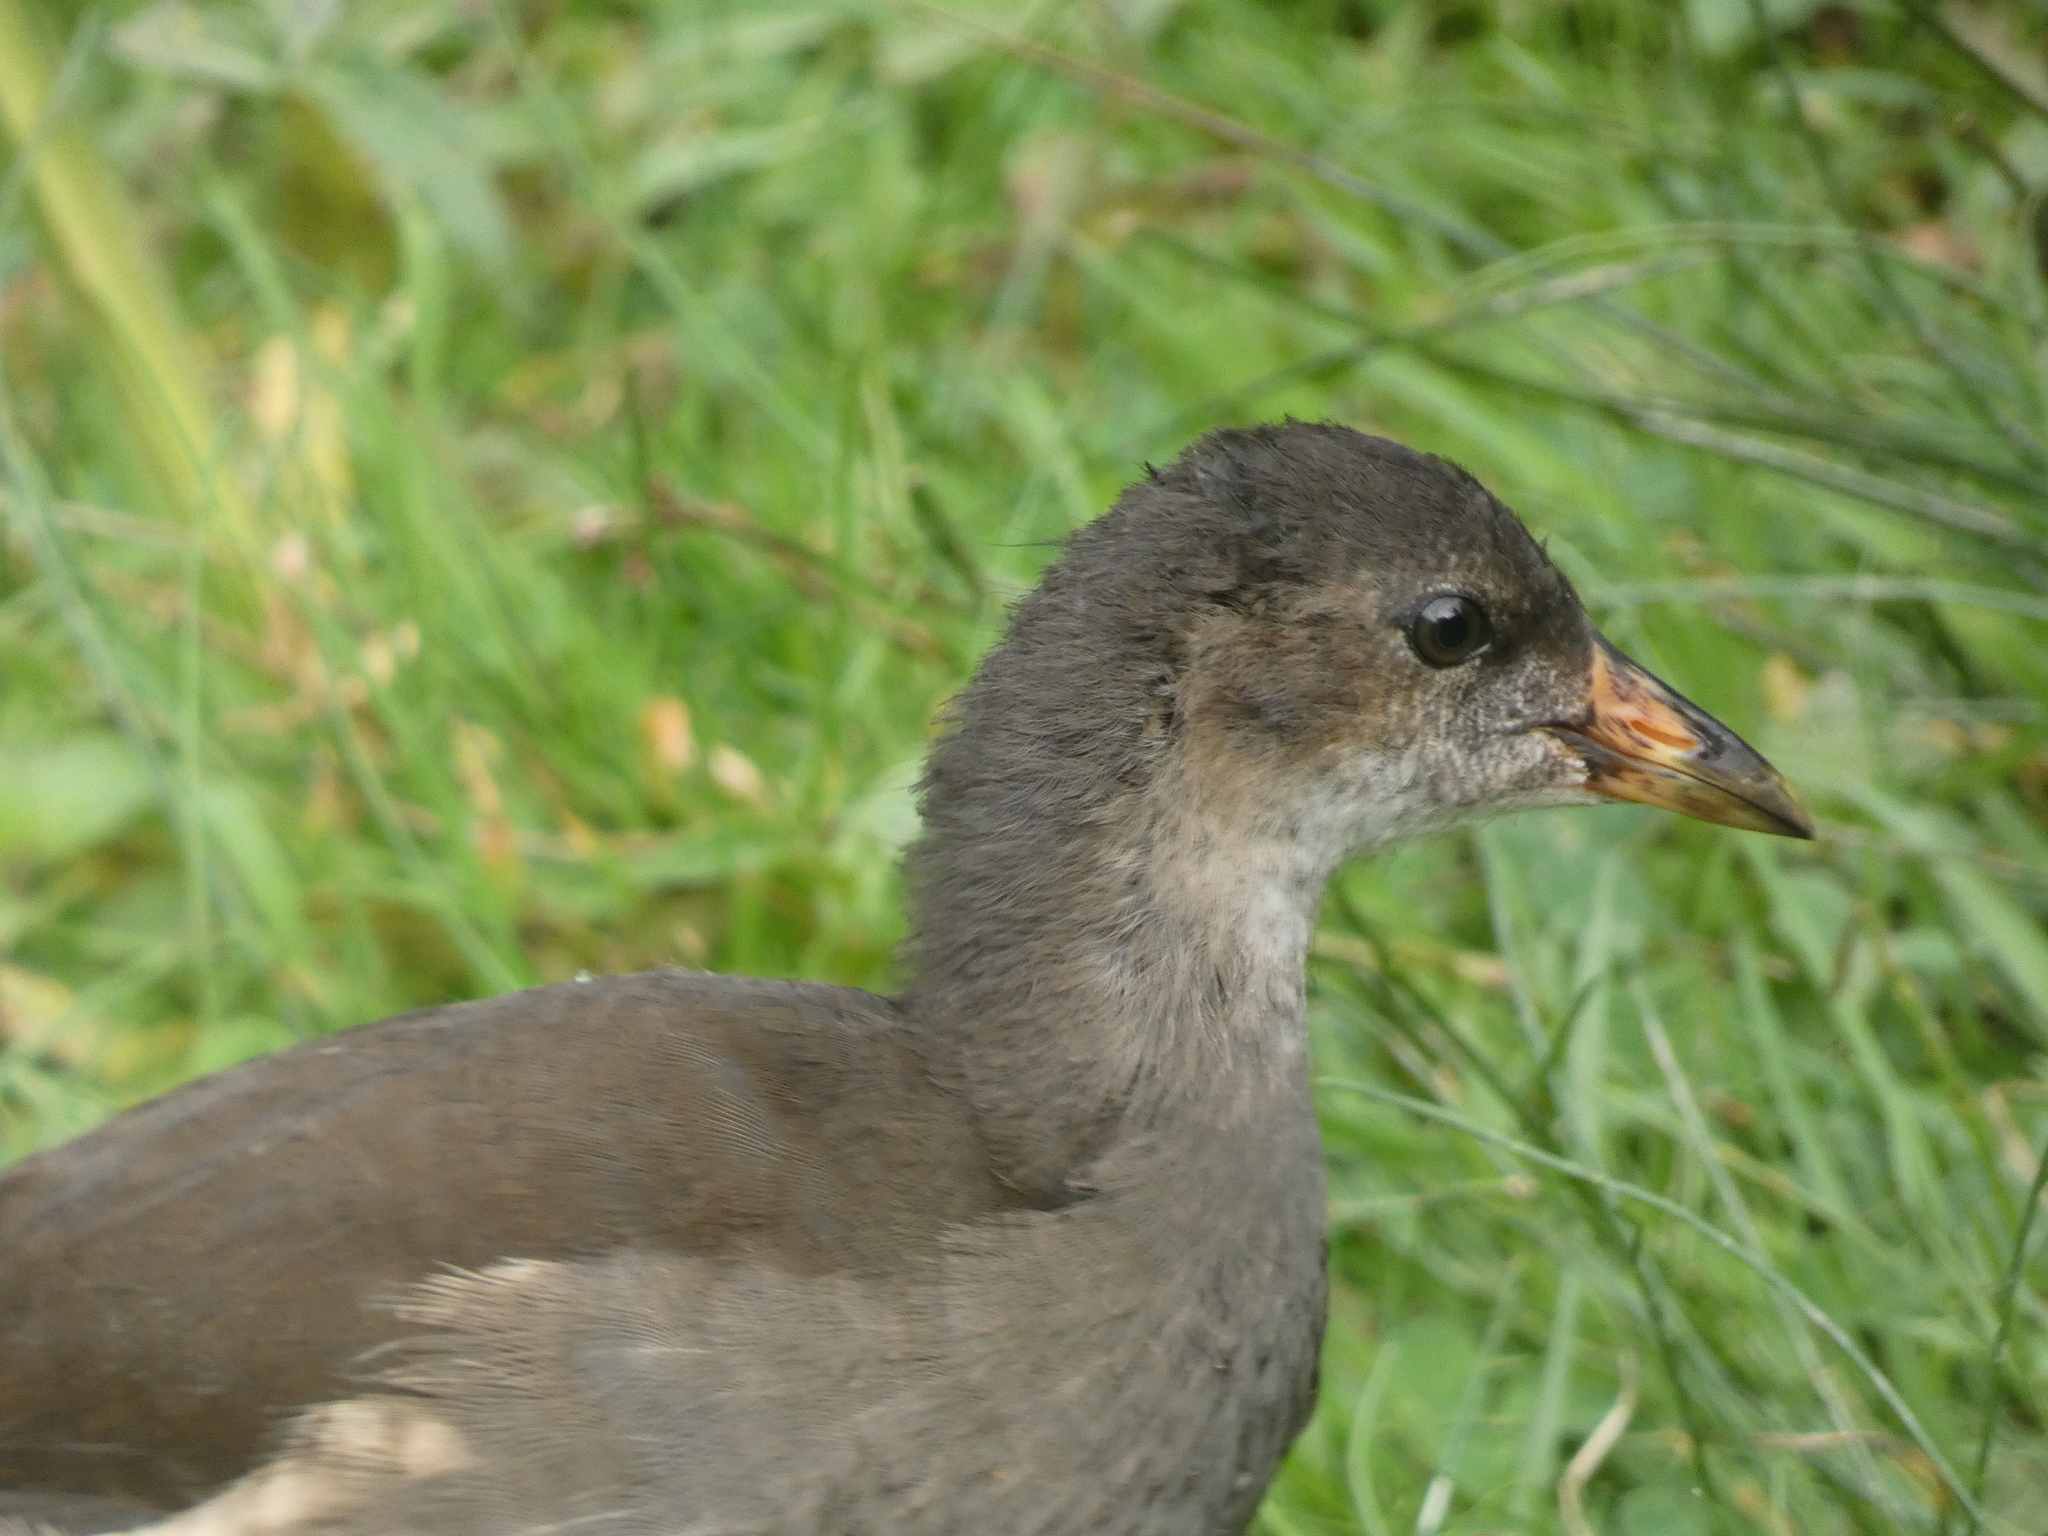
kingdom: Animalia
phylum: Chordata
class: Aves
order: Gruiformes
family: Rallidae
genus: Gallinula
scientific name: Gallinula chloropus
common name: Common moorhen
